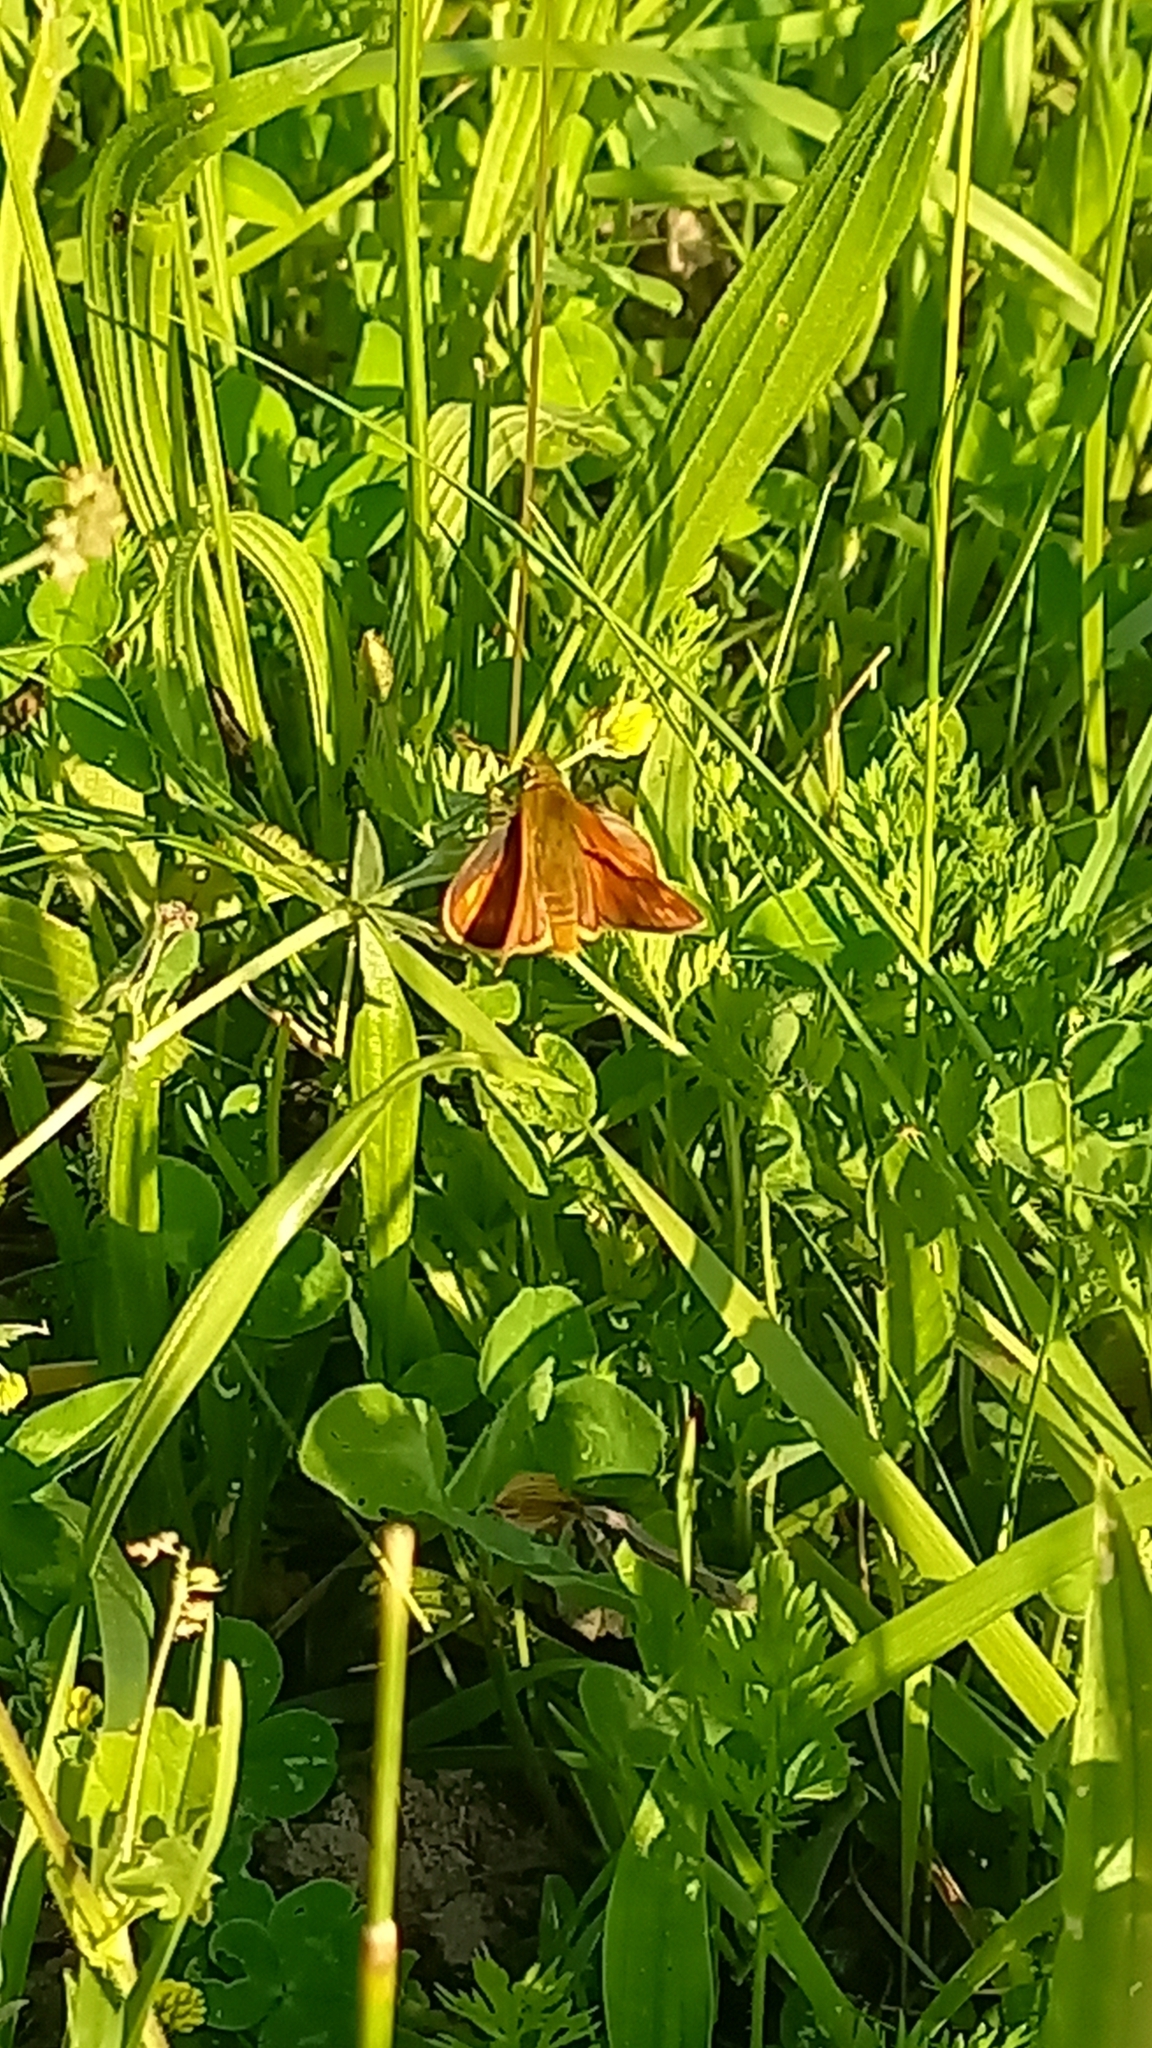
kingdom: Animalia
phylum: Arthropoda
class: Insecta
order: Lepidoptera
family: Hesperiidae
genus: Ochlodes
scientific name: Ochlodes venata
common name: Large skipper
